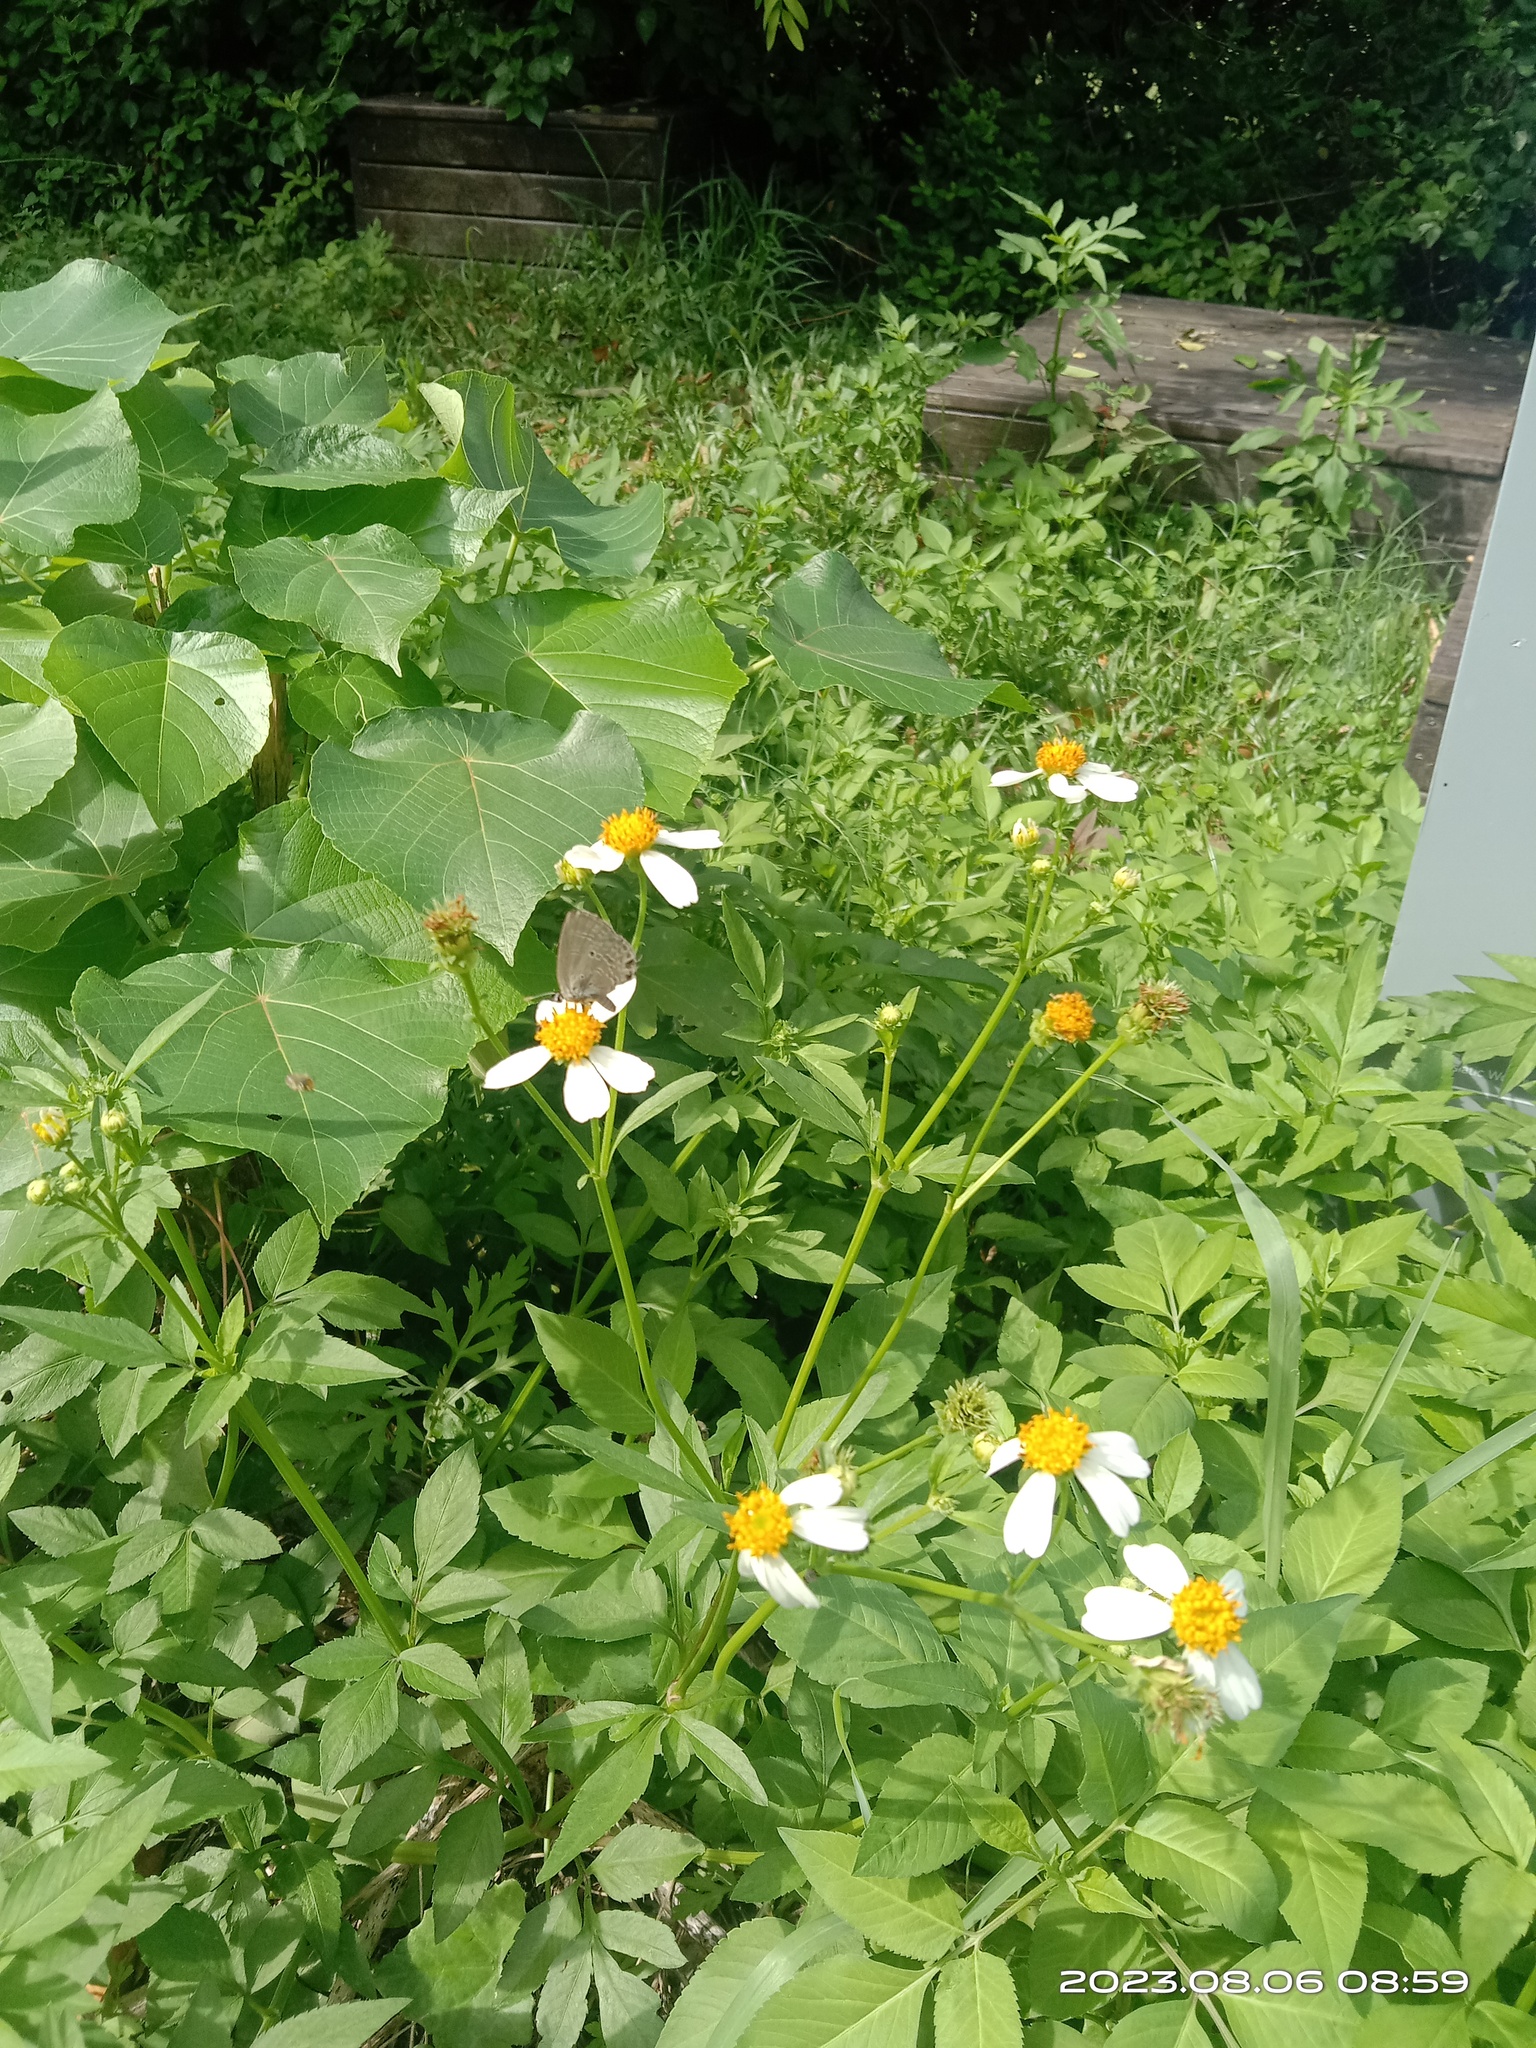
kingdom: Animalia
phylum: Arthropoda
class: Insecta
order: Lepidoptera
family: Lycaenidae
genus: Luthrodes
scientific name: Luthrodes pandava
